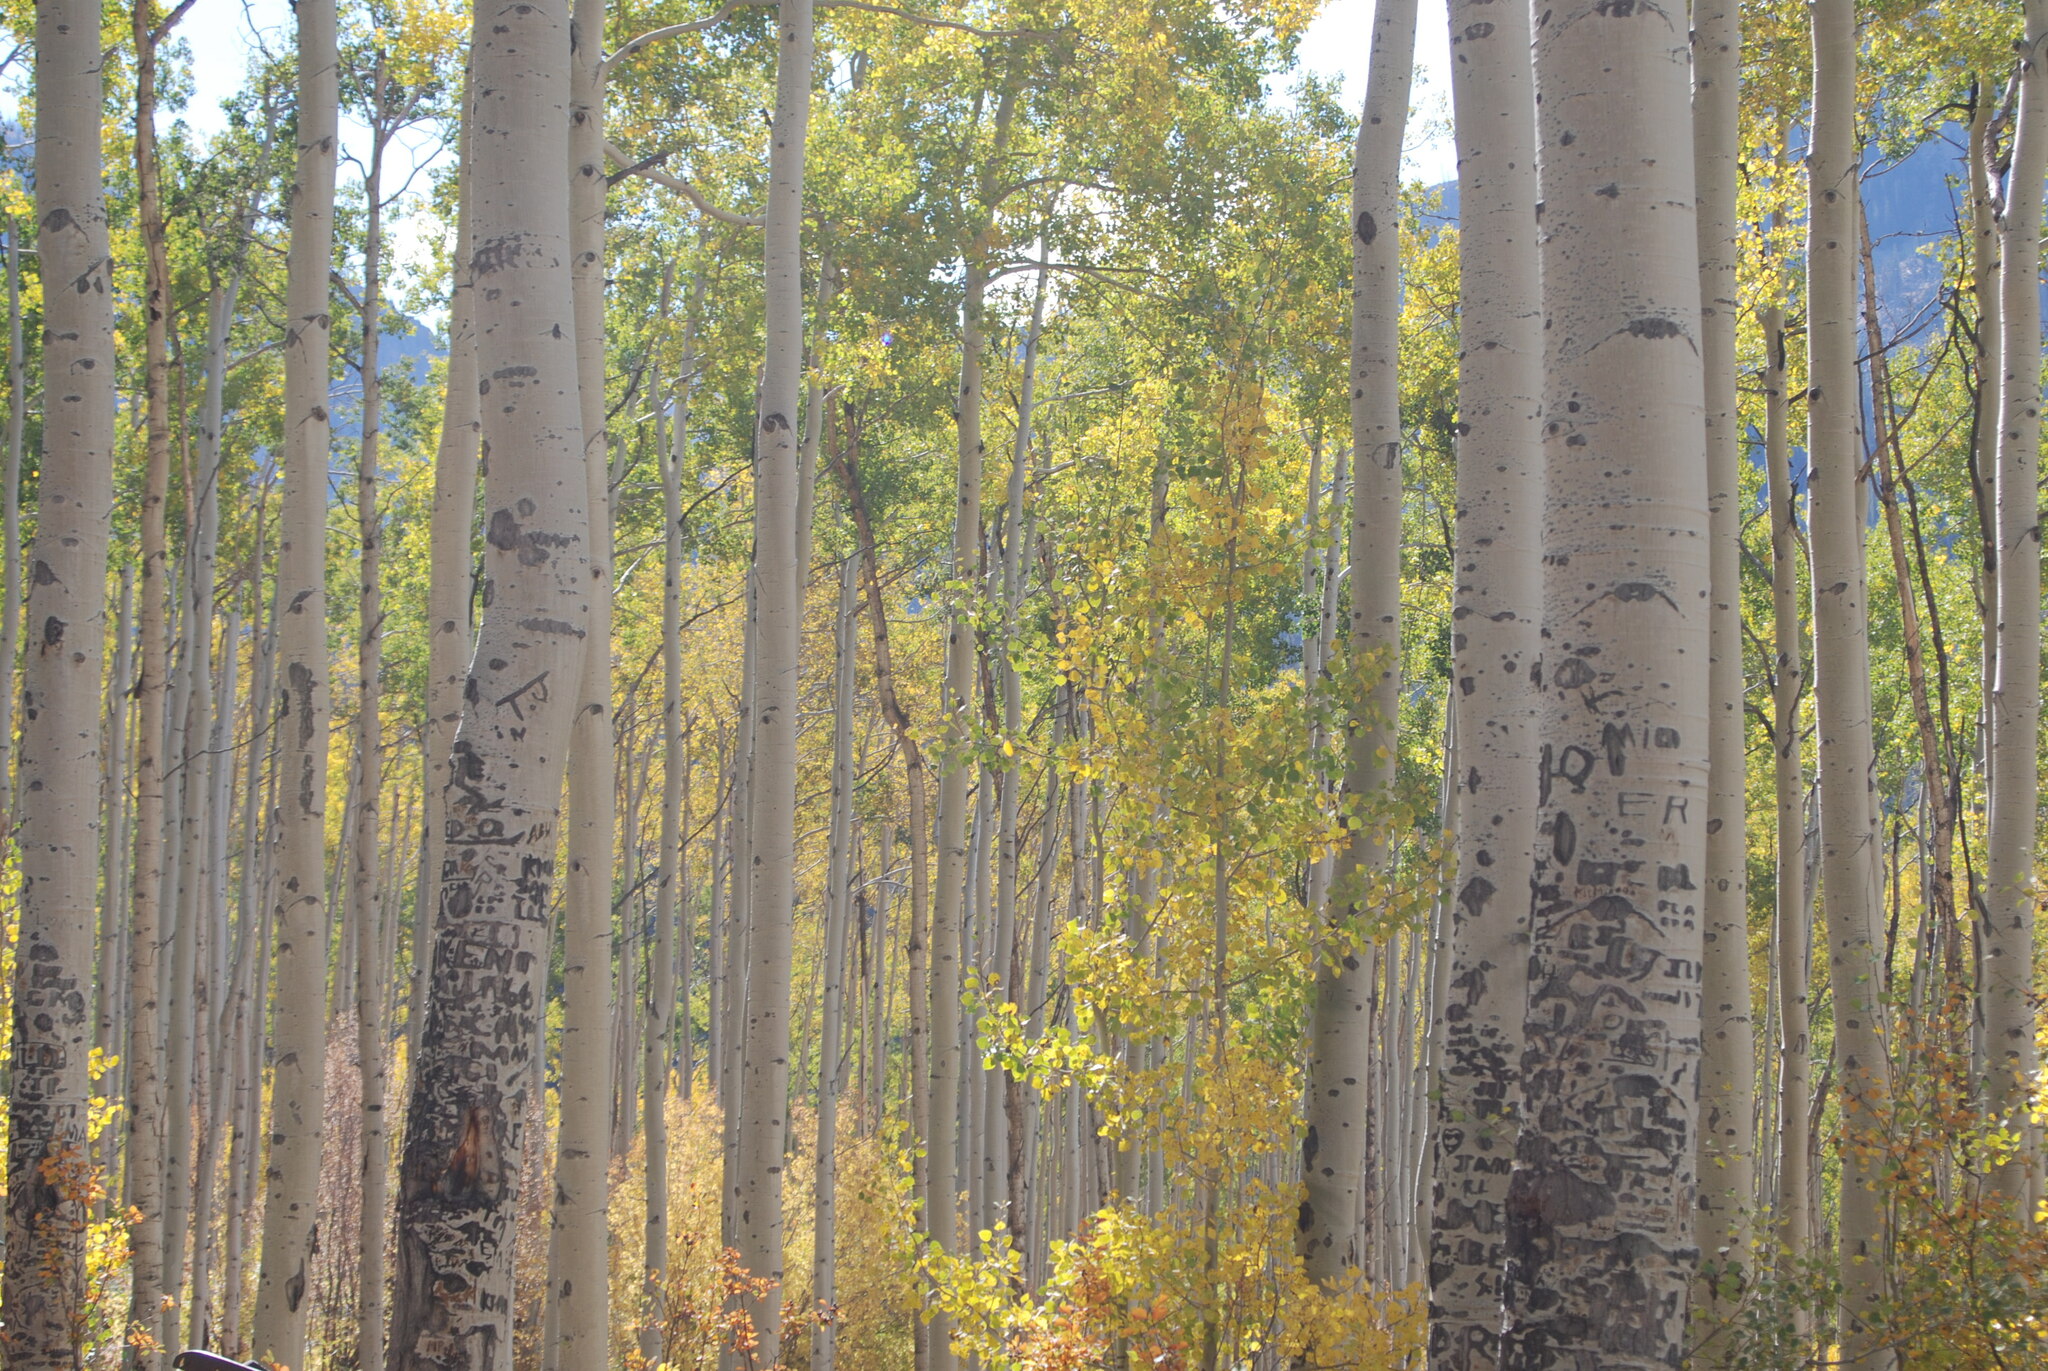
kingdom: Plantae
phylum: Tracheophyta
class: Magnoliopsida
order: Malpighiales
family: Salicaceae
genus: Populus
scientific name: Populus tremuloides
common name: Quaking aspen
